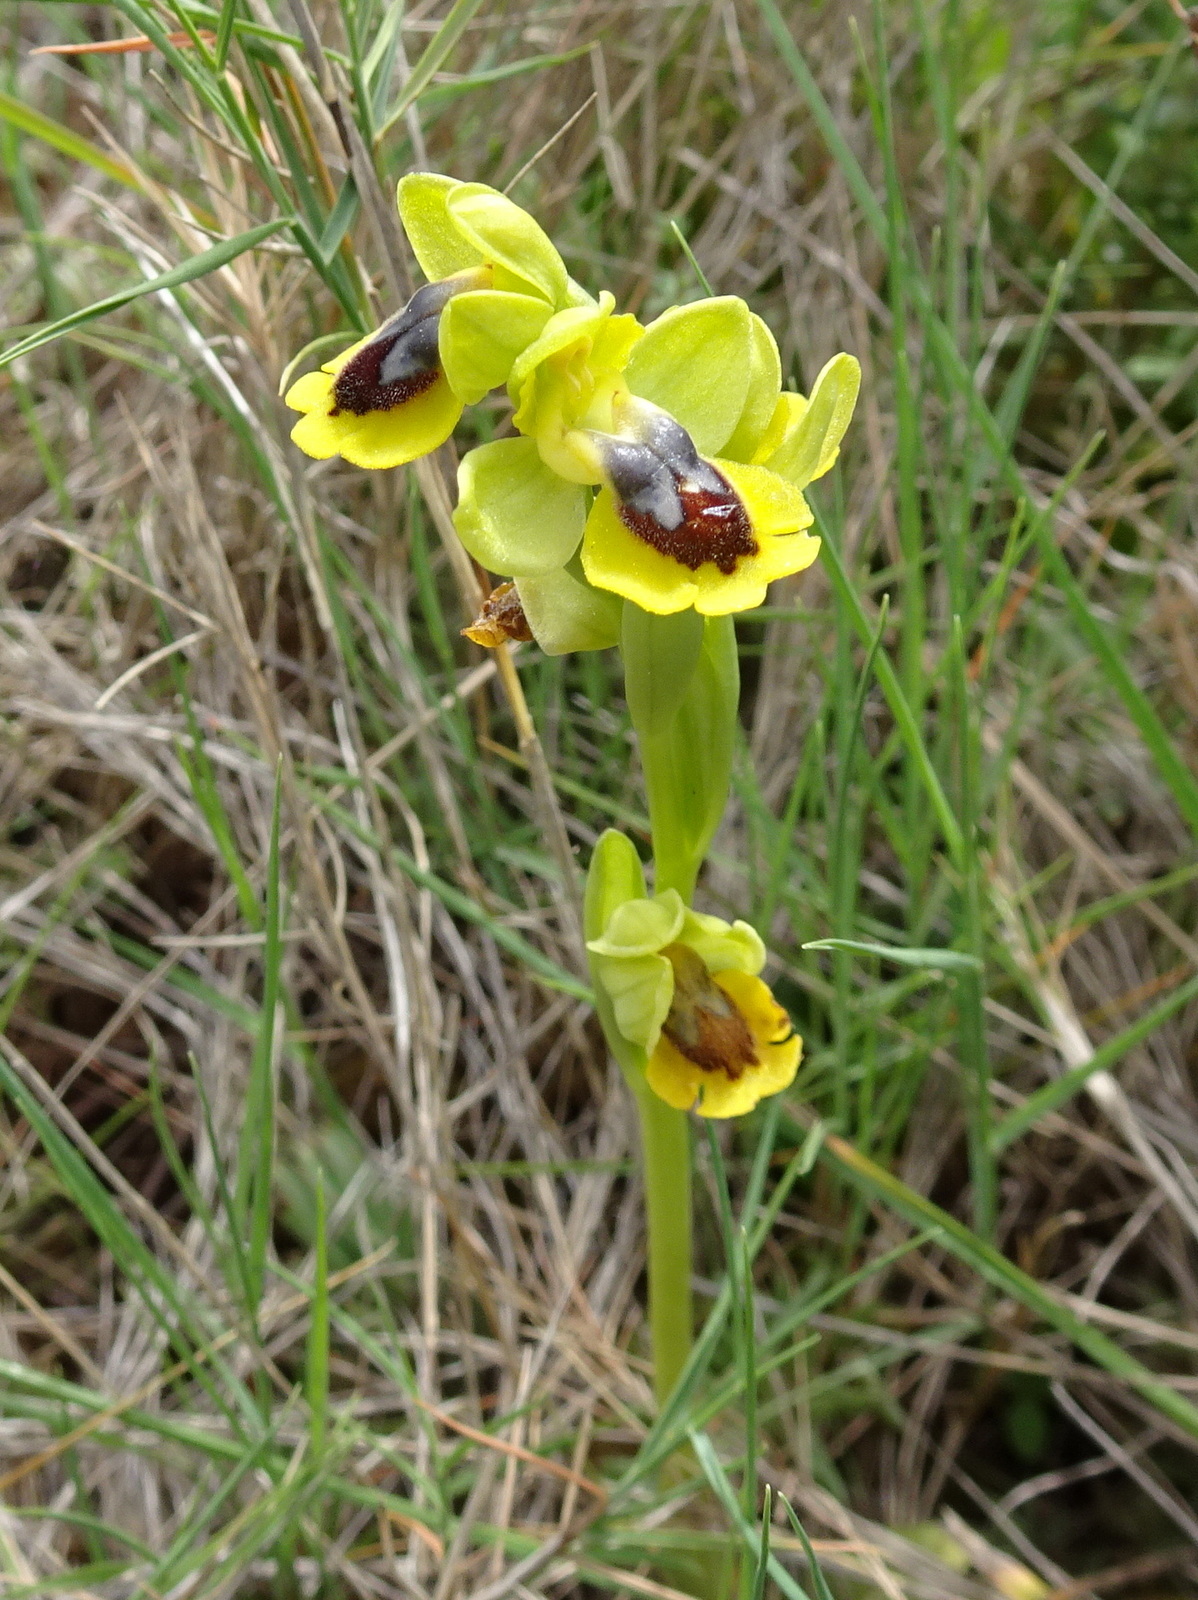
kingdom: Plantae
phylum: Tracheophyta
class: Liliopsida
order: Asparagales
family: Orchidaceae
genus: Ophrys
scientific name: Ophrys lutea
